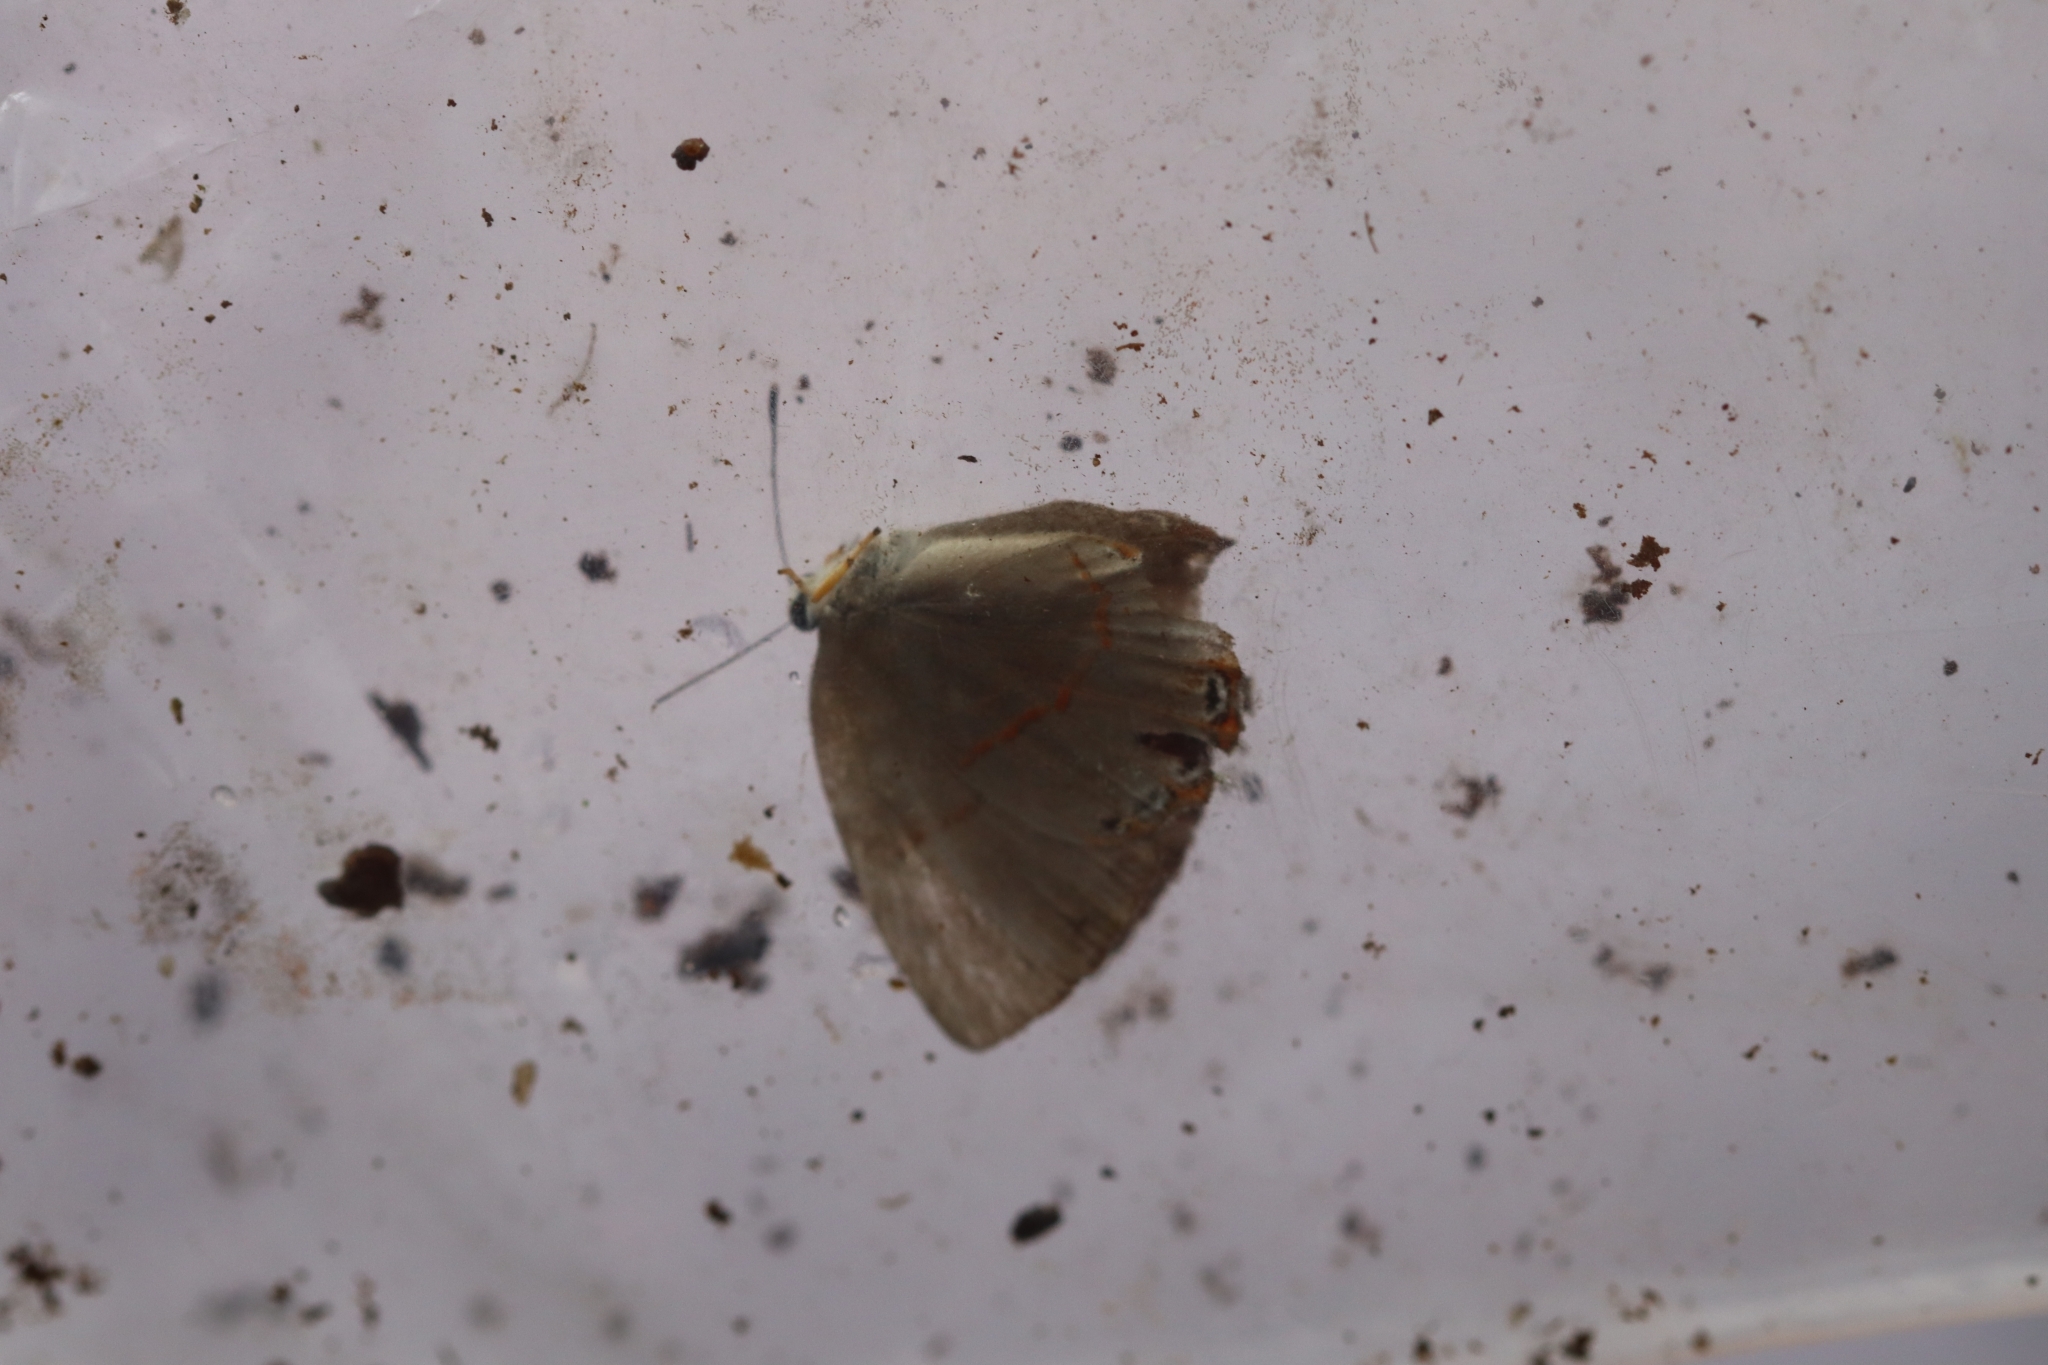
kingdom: Animalia
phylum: Arthropoda
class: Insecta
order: Lepidoptera
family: Riodinidae
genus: Pelolasia
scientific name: Pelolasia
